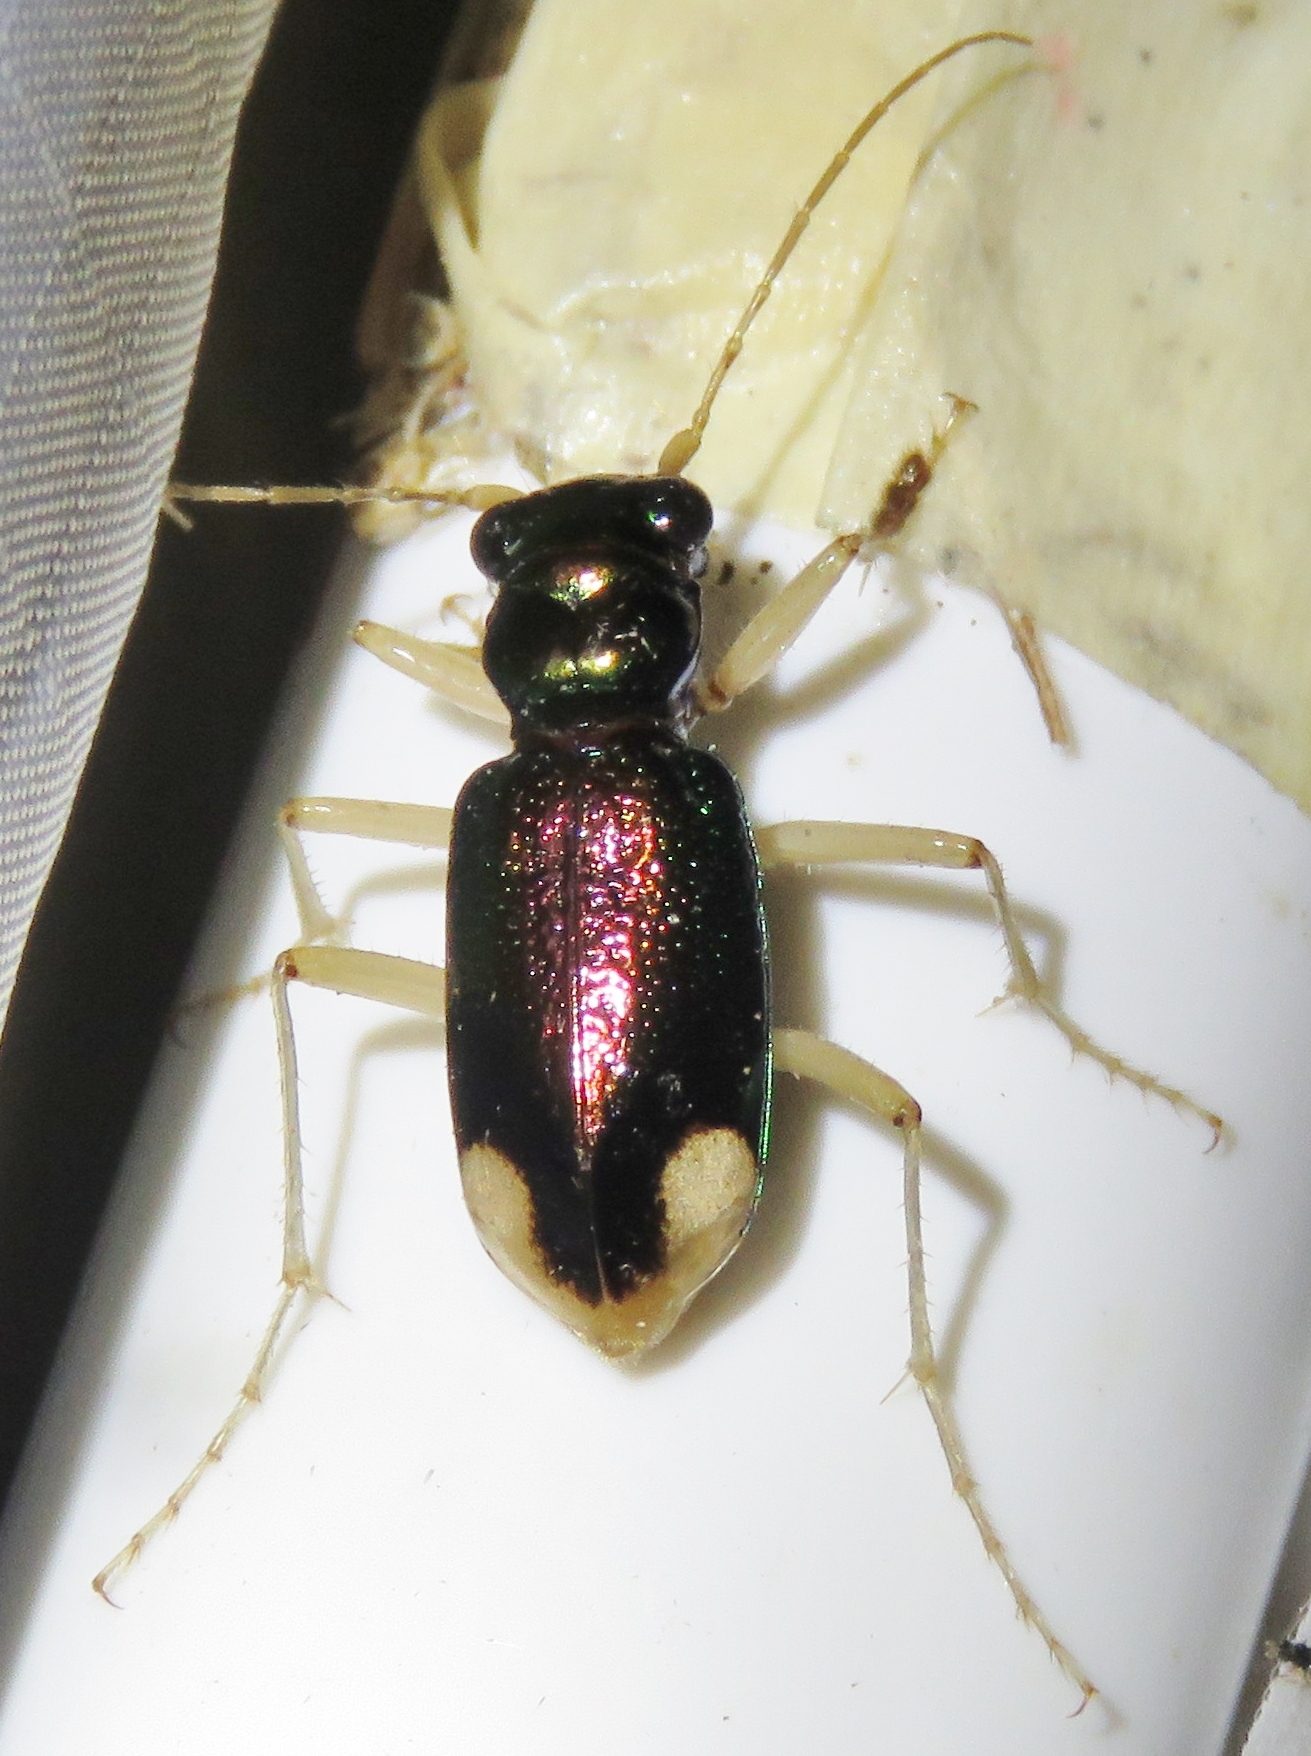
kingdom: Animalia
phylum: Arthropoda
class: Insecta
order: Coleoptera
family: Carabidae
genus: Tetracha
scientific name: Tetracha carolina
